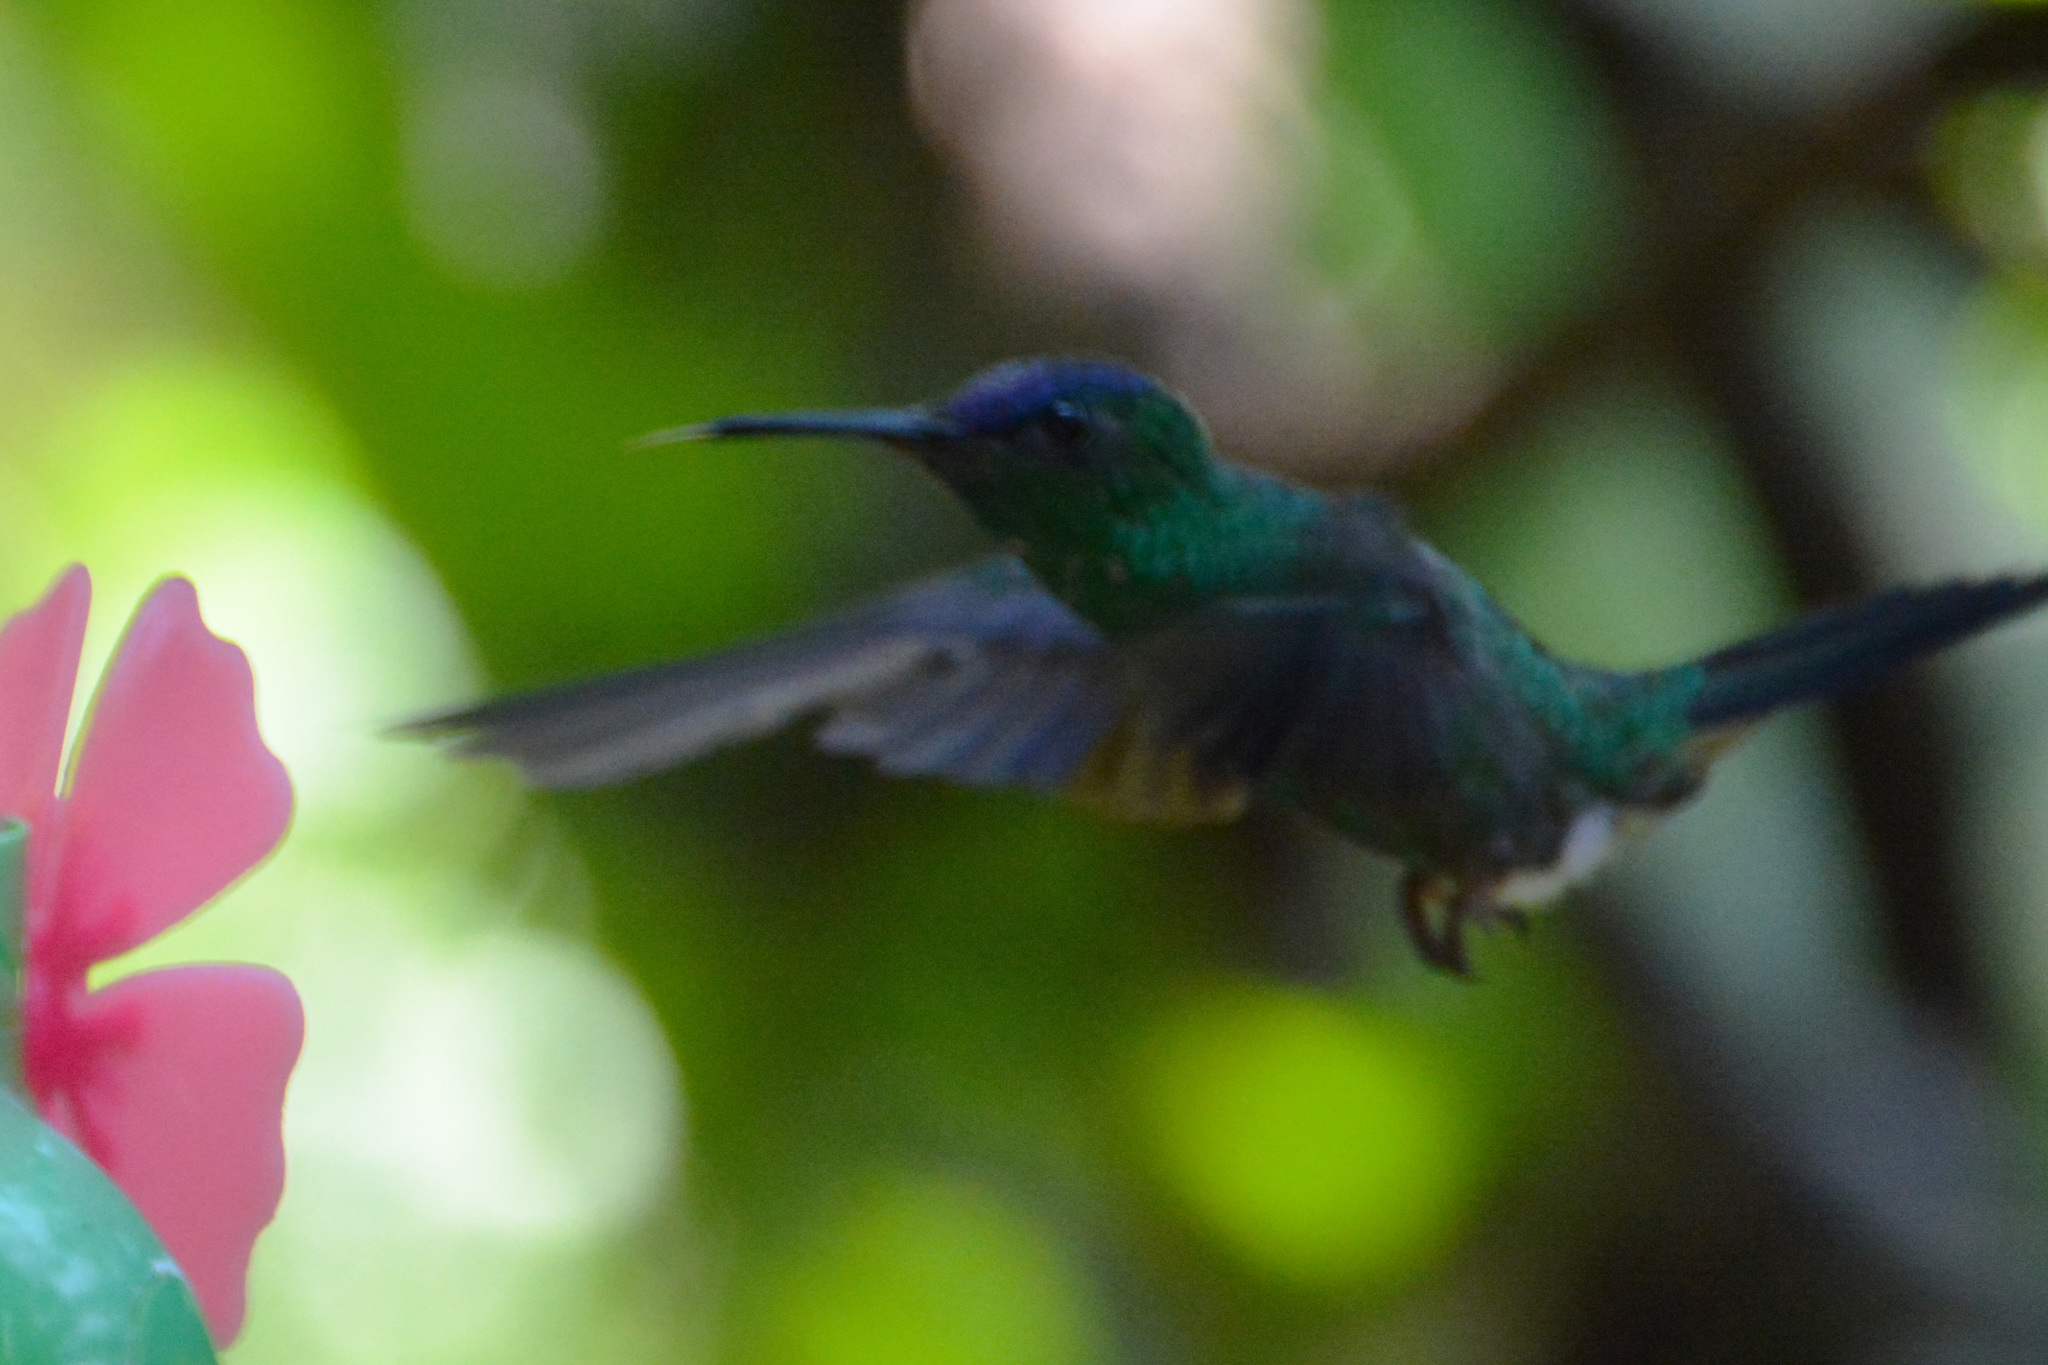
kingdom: Animalia
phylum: Chordata
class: Aves
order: Apodiformes
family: Trochilidae
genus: Thalurania
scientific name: Thalurania glaucopis
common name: Violet-capped woodnymph
